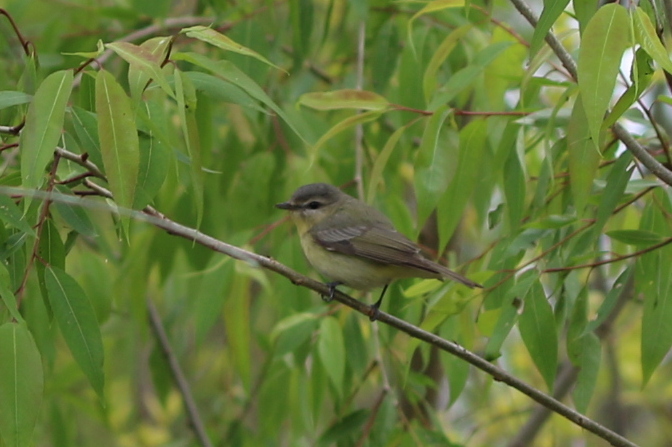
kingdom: Animalia
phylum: Chordata
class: Aves
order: Passeriformes
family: Vireonidae
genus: Vireo
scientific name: Vireo philadelphicus
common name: Philadelphia vireo
